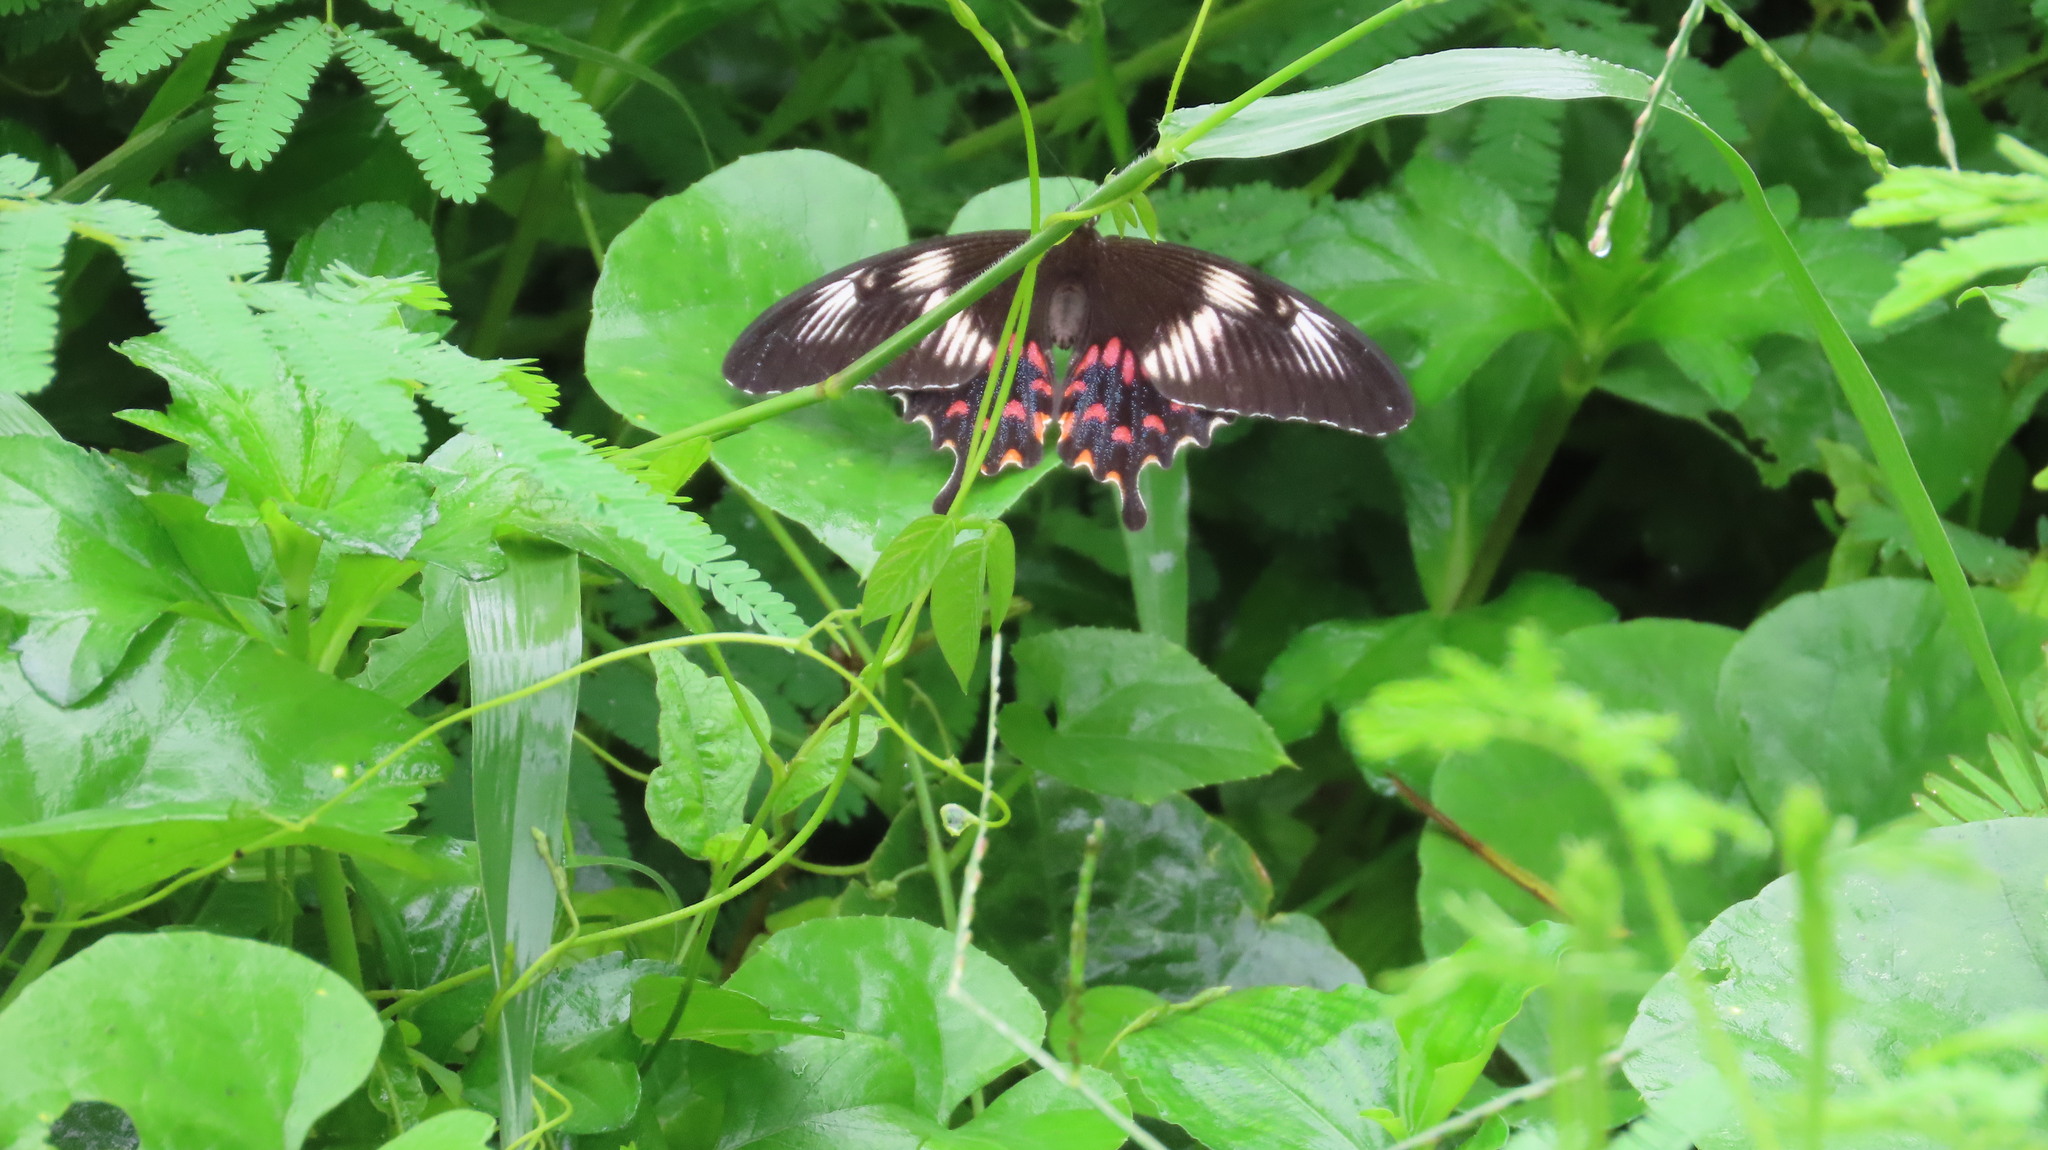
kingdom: Animalia
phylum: Arthropoda
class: Insecta
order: Lepidoptera
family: Papilionidae
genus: Papilio
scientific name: Papilio polytes
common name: Common mormon
